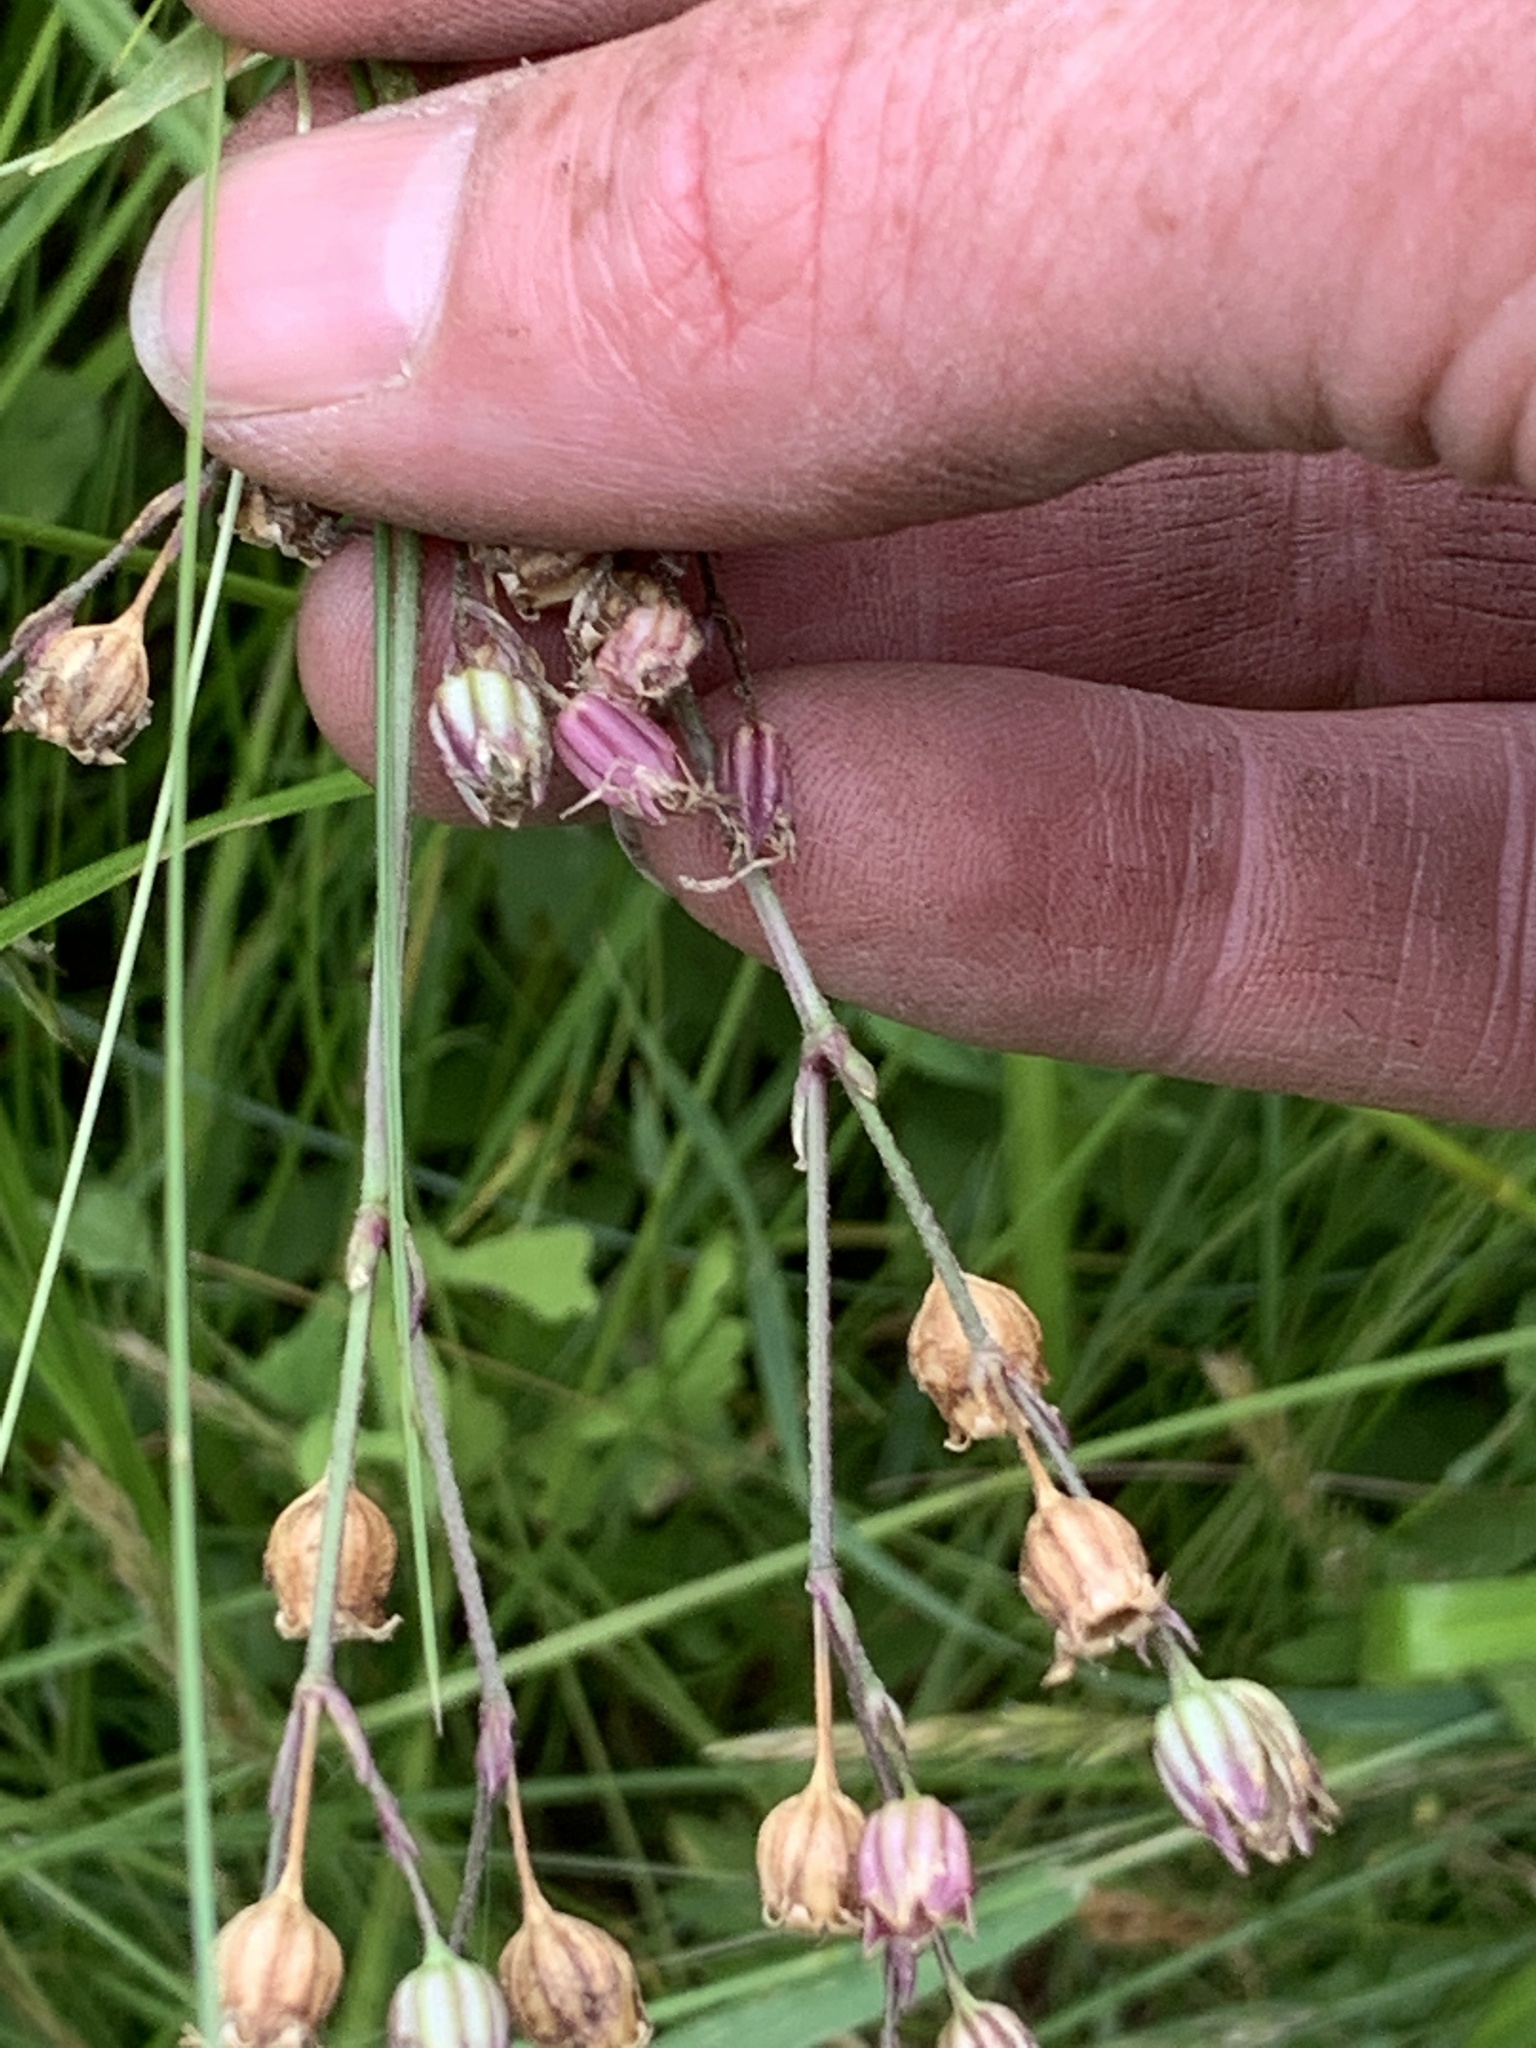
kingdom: Plantae
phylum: Tracheophyta
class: Magnoliopsida
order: Caryophyllales
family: Caryophyllaceae
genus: Silene
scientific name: Silene flos-cuculi
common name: Ragged-robin
